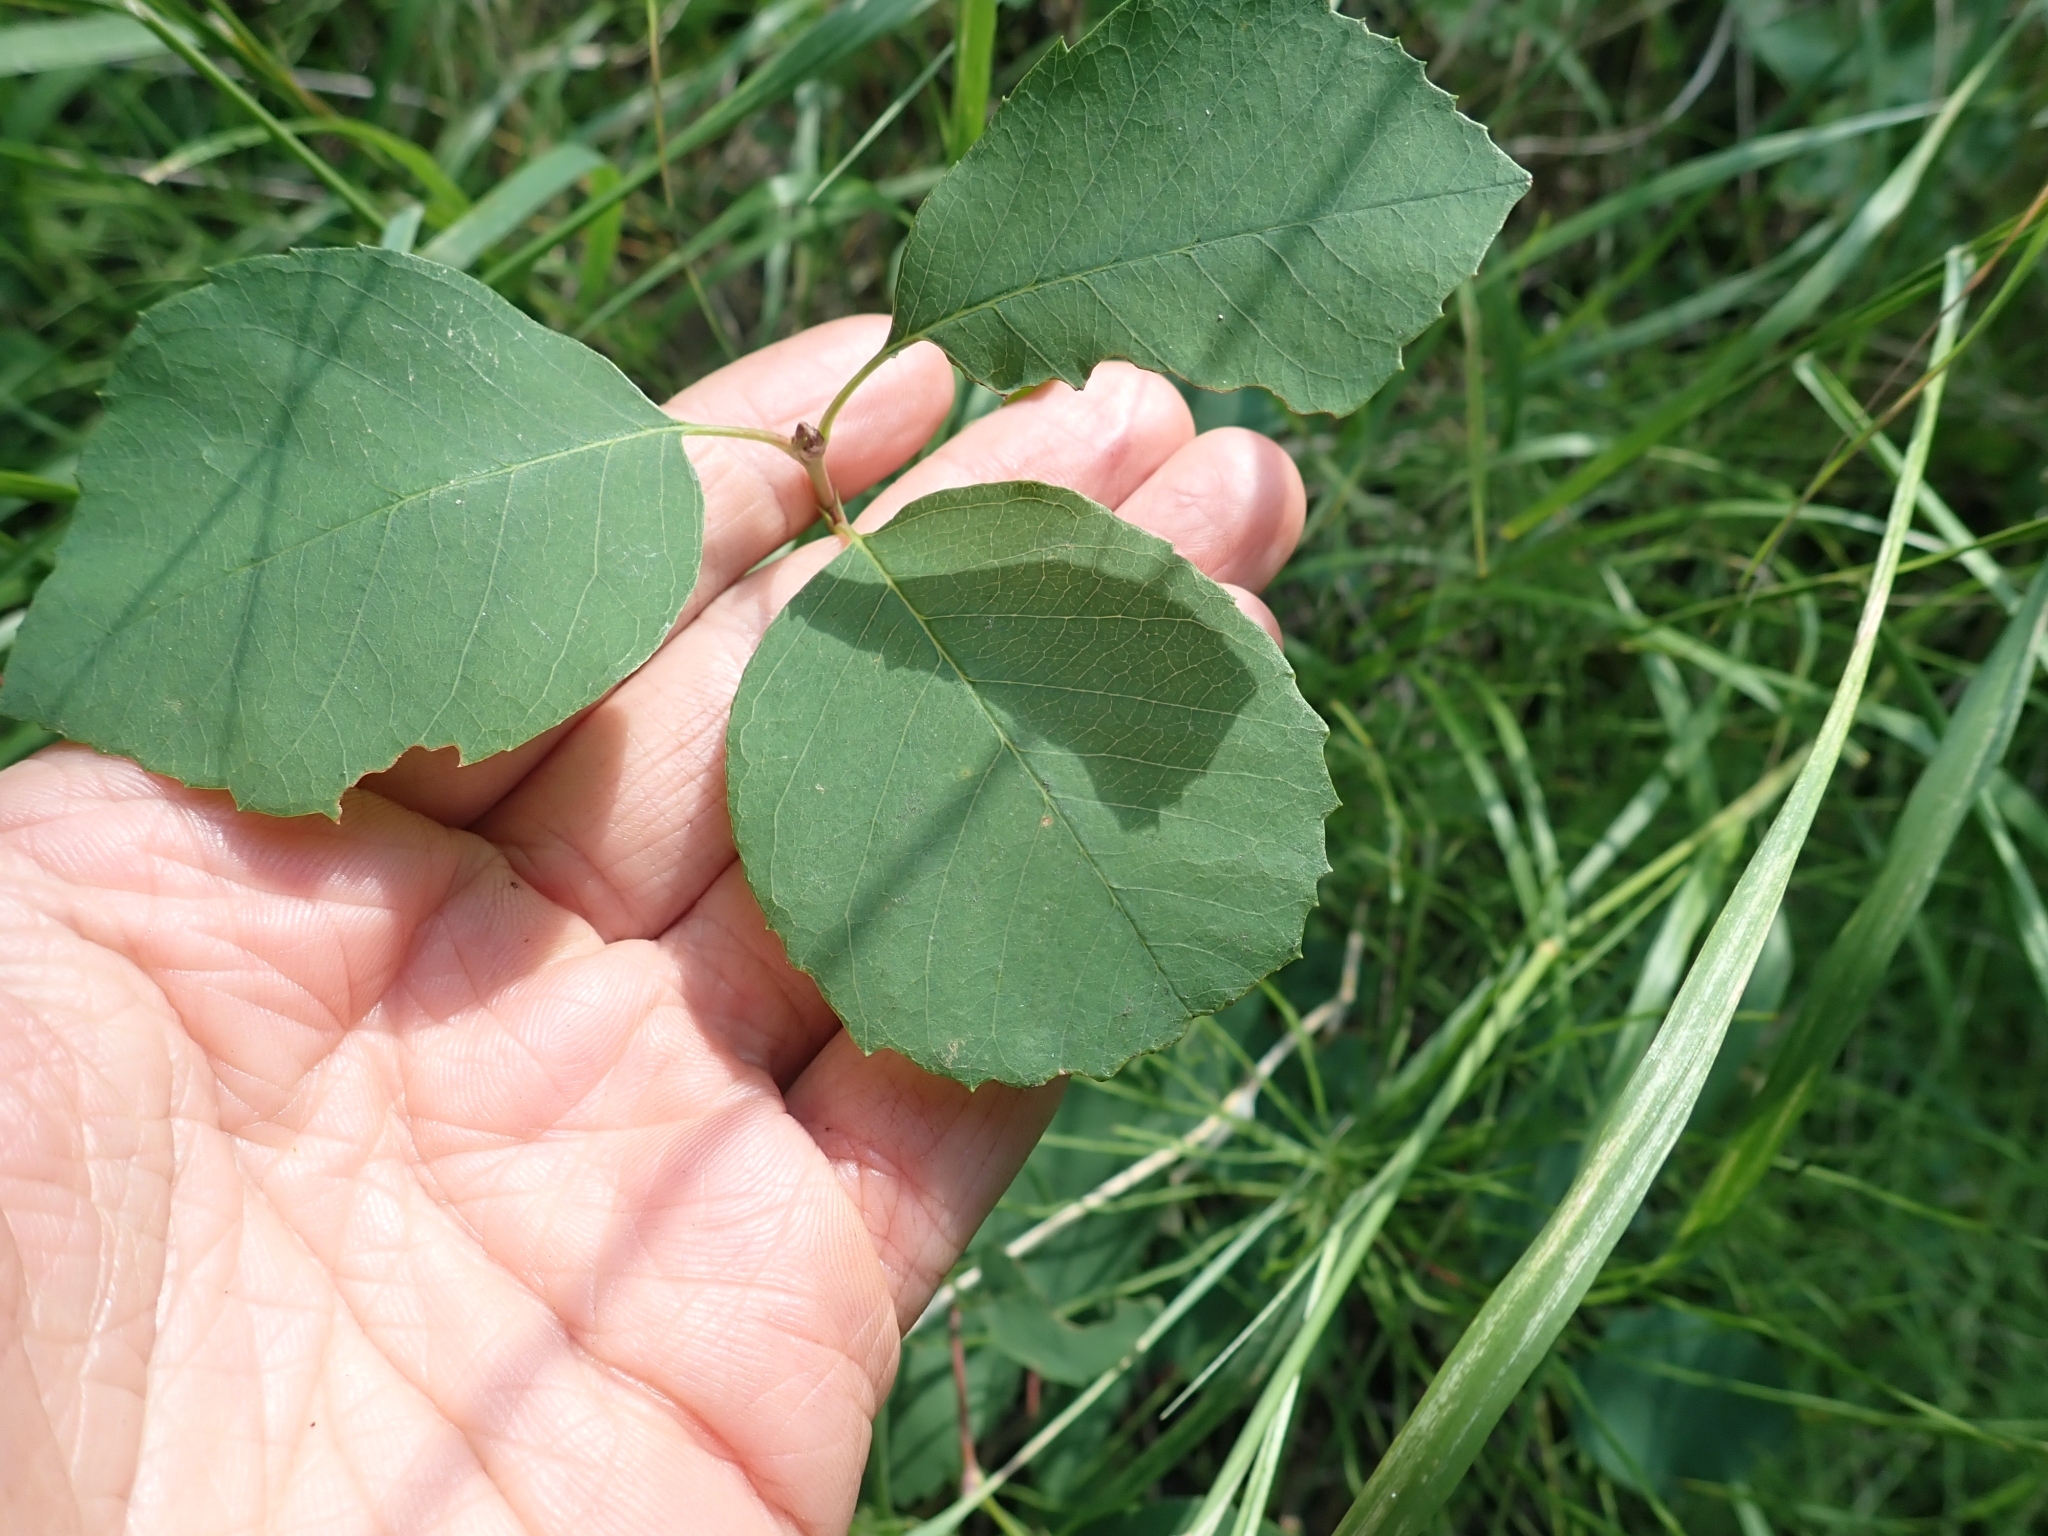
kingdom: Plantae
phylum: Tracheophyta
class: Magnoliopsida
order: Rosales
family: Rosaceae
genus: Amelanchier
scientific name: Amelanchier alnifolia
